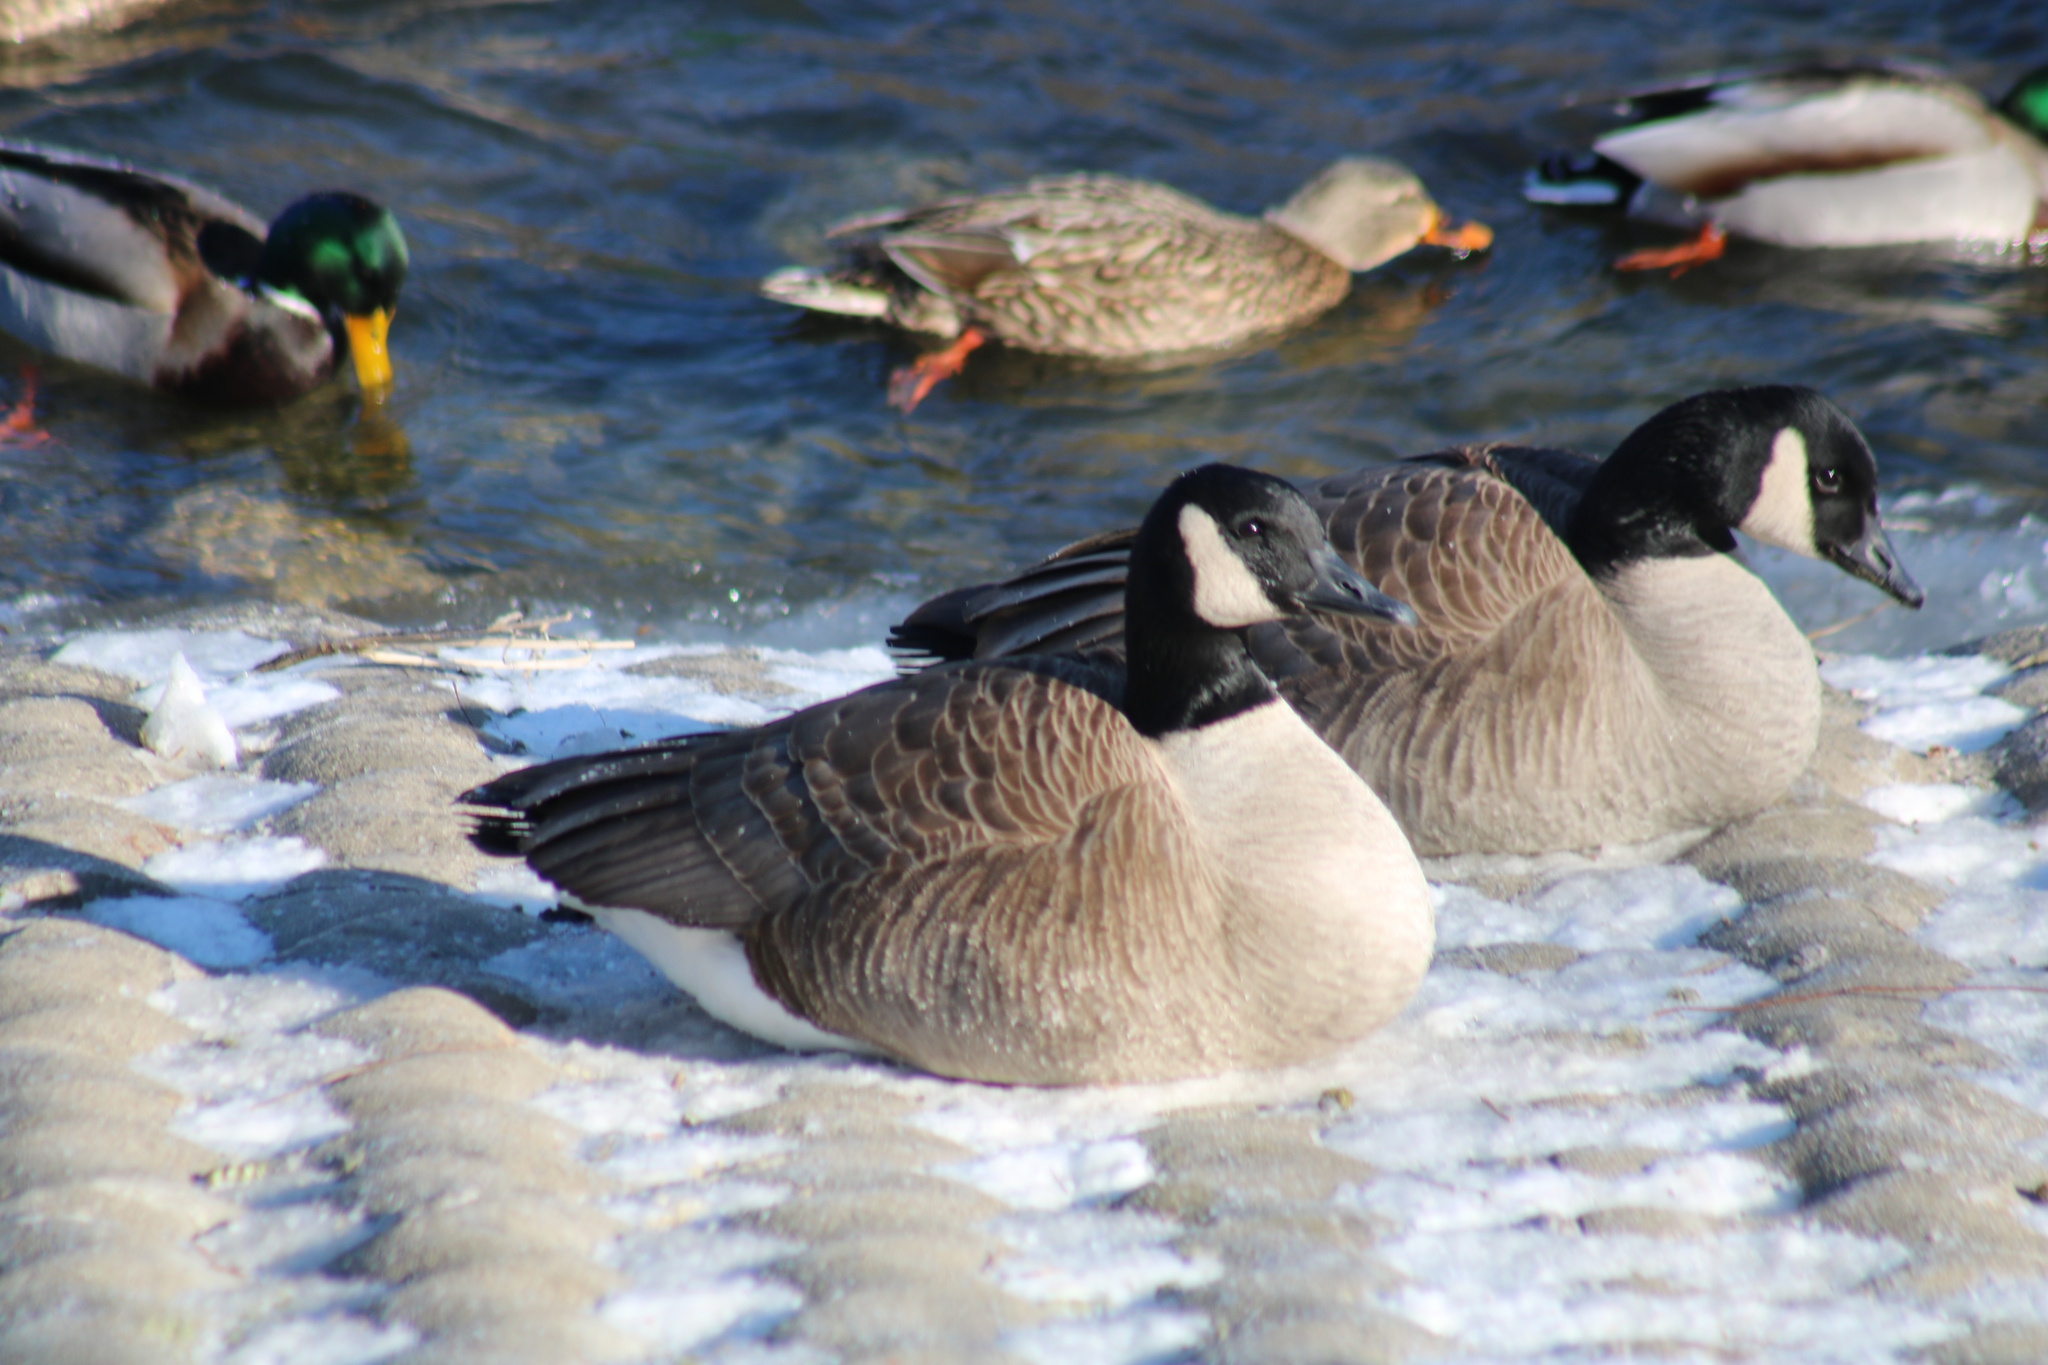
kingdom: Animalia
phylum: Chordata
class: Aves
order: Anseriformes
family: Anatidae
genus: Branta
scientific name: Branta canadensis
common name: Canada goose
